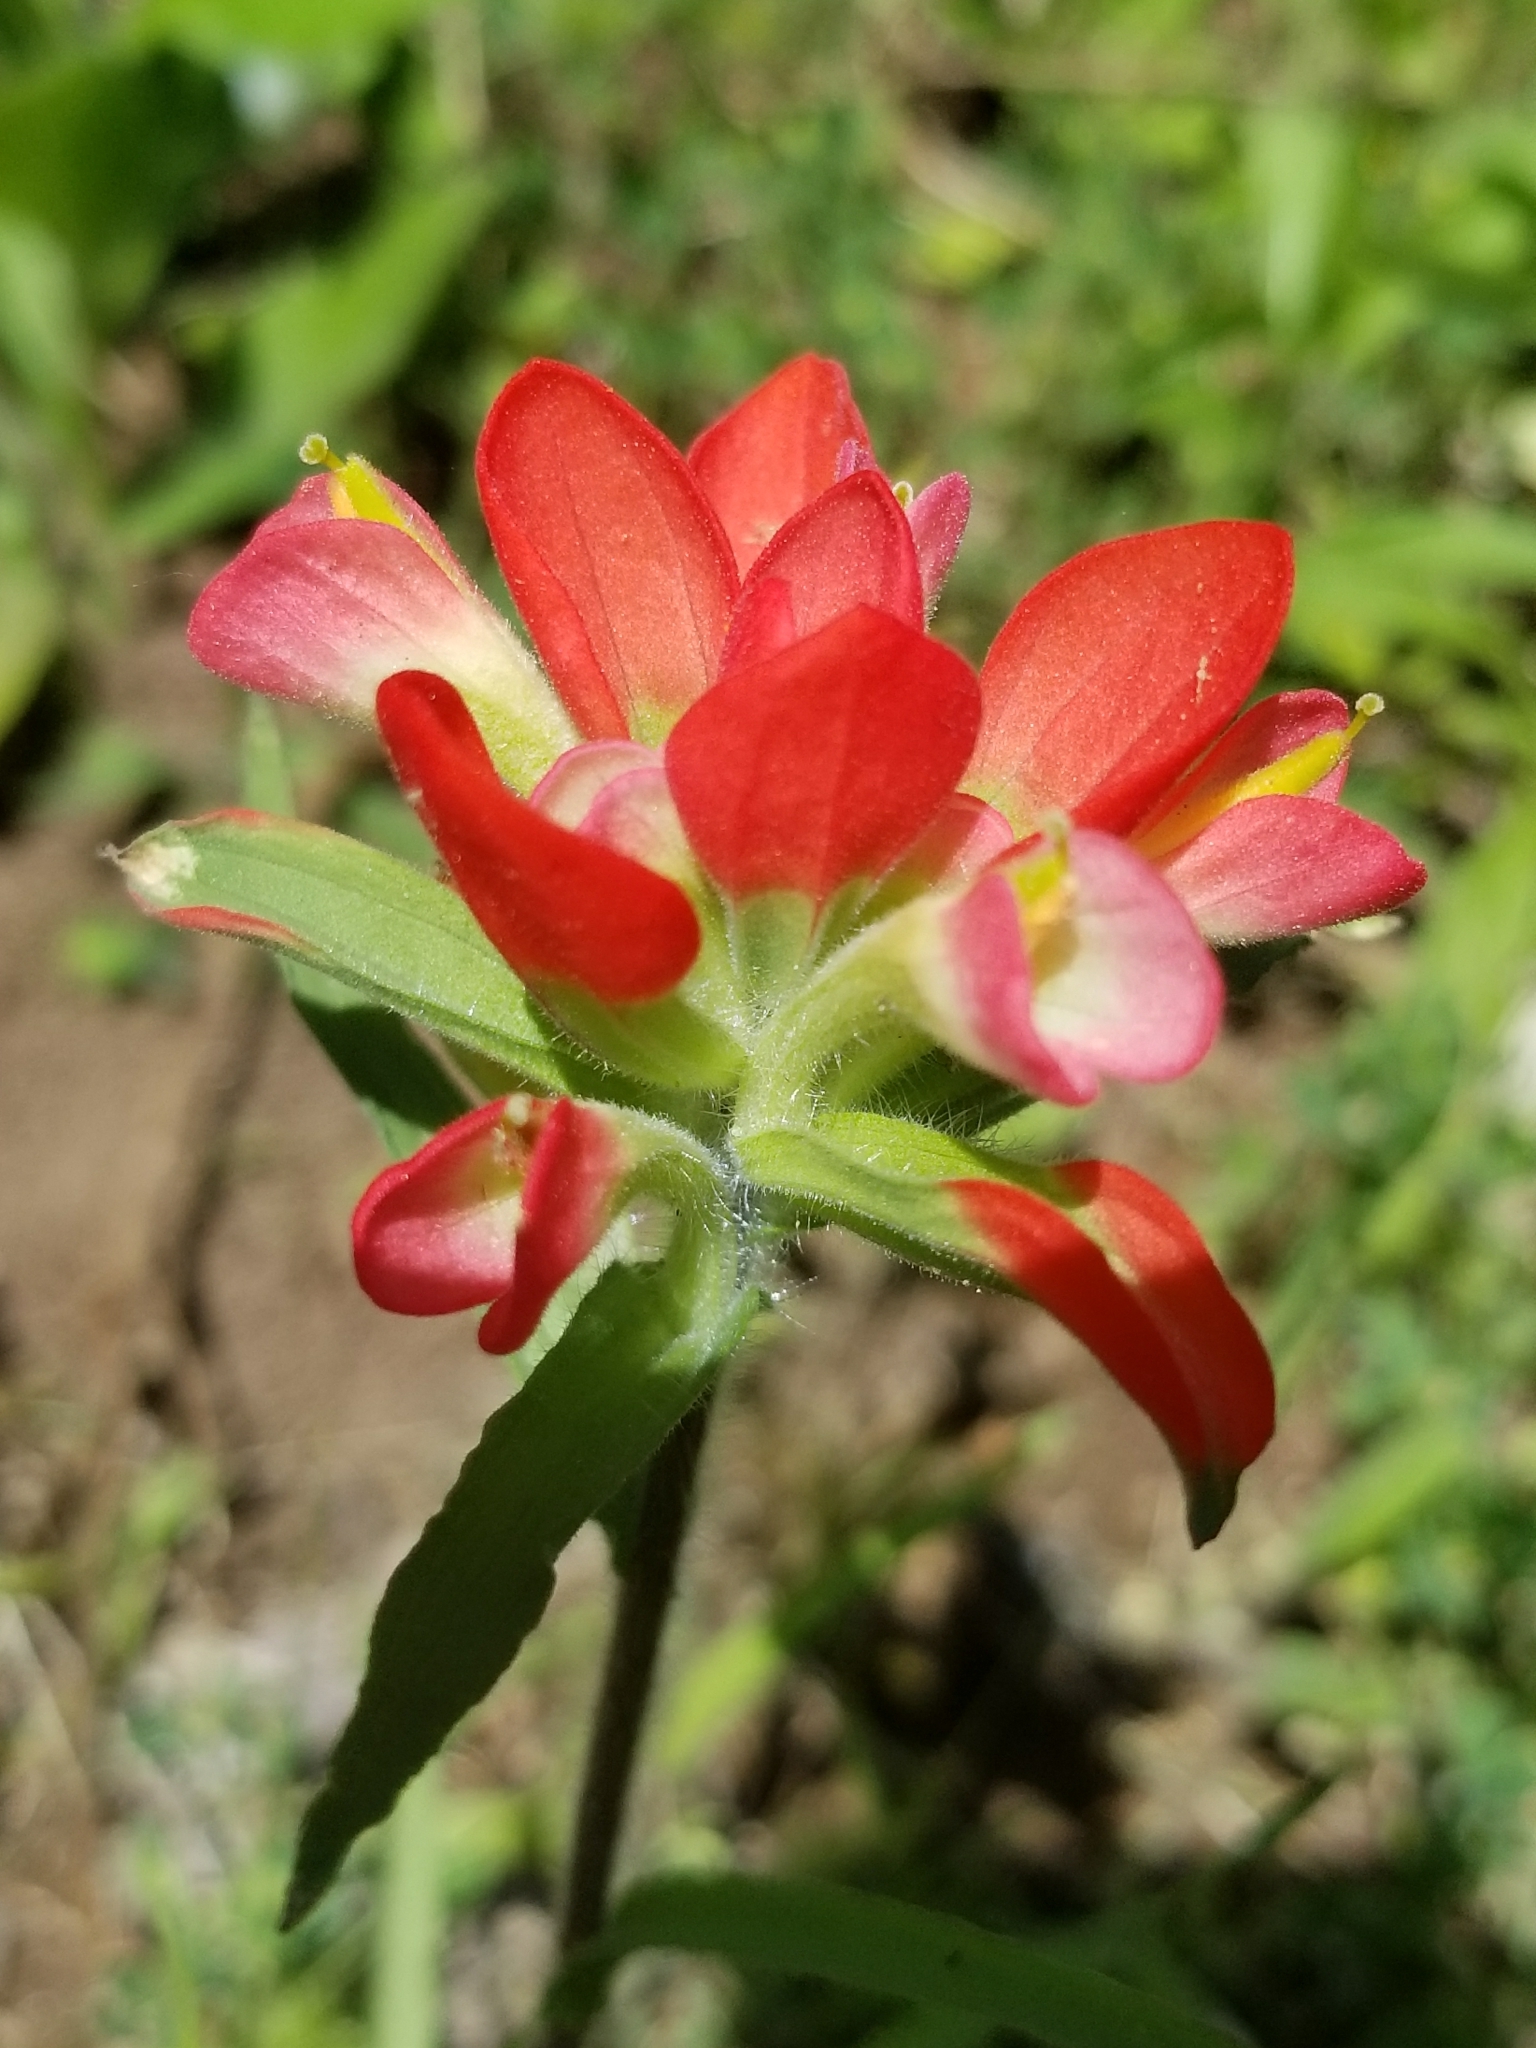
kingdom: Plantae
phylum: Tracheophyta
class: Magnoliopsida
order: Lamiales
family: Orobanchaceae
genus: Castilleja
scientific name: Castilleja indivisa
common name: Texas paintbrush
